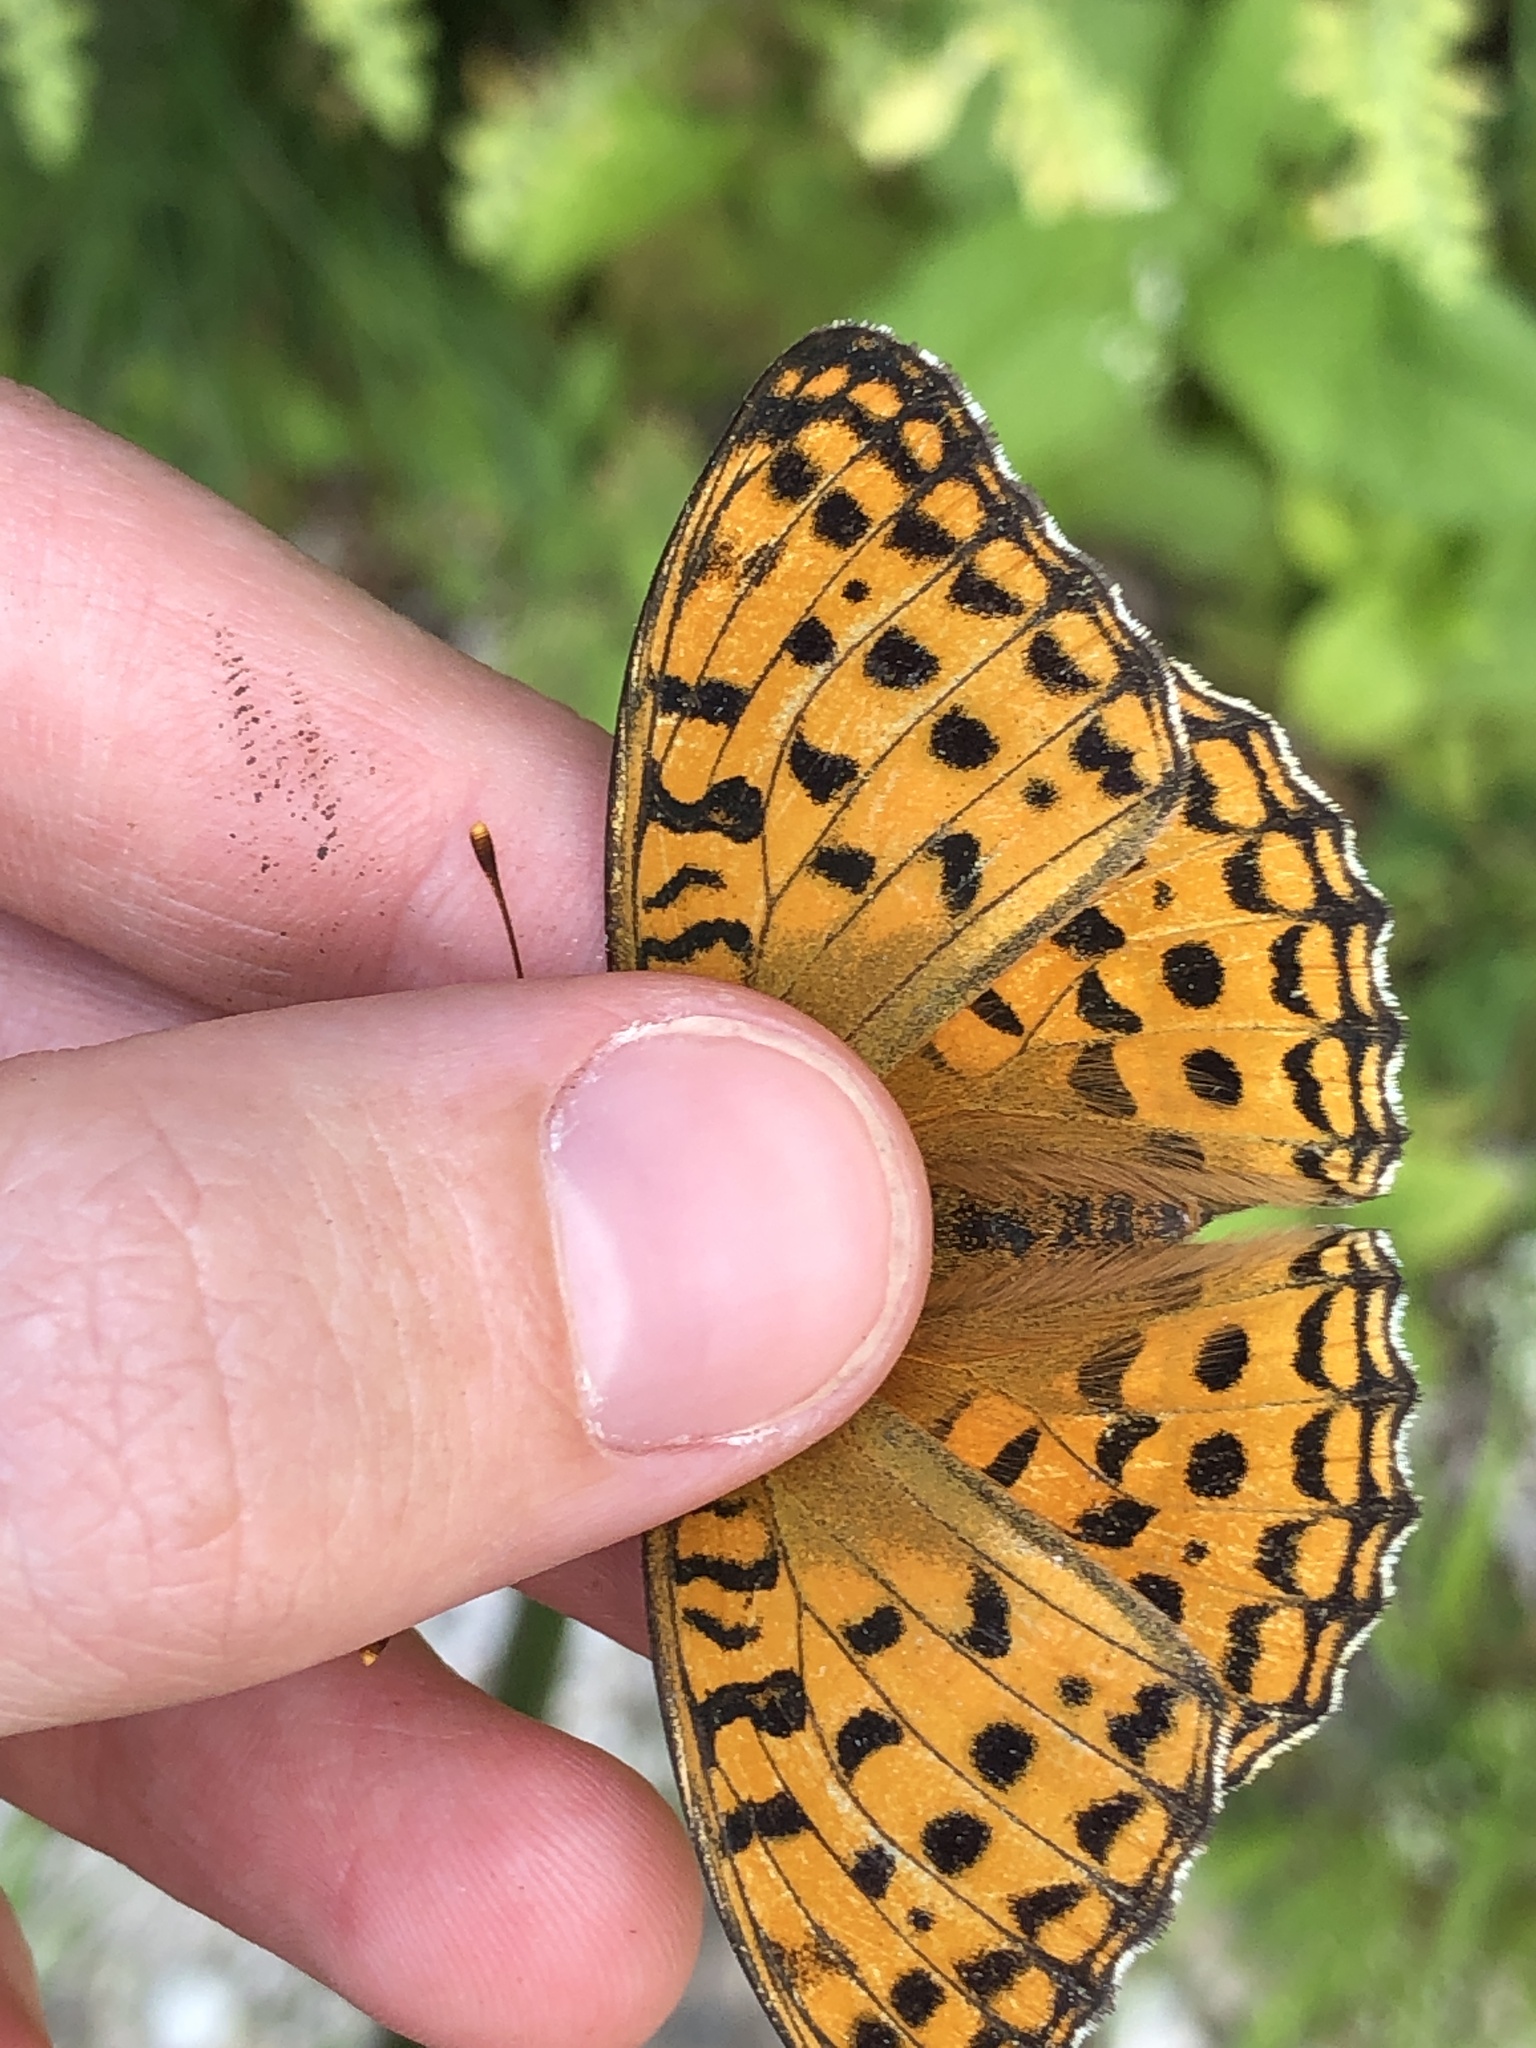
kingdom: Animalia
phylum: Arthropoda
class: Insecta
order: Lepidoptera
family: Nymphalidae
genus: Fabriciana
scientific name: Fabriciana adippe
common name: High brown fritillary
